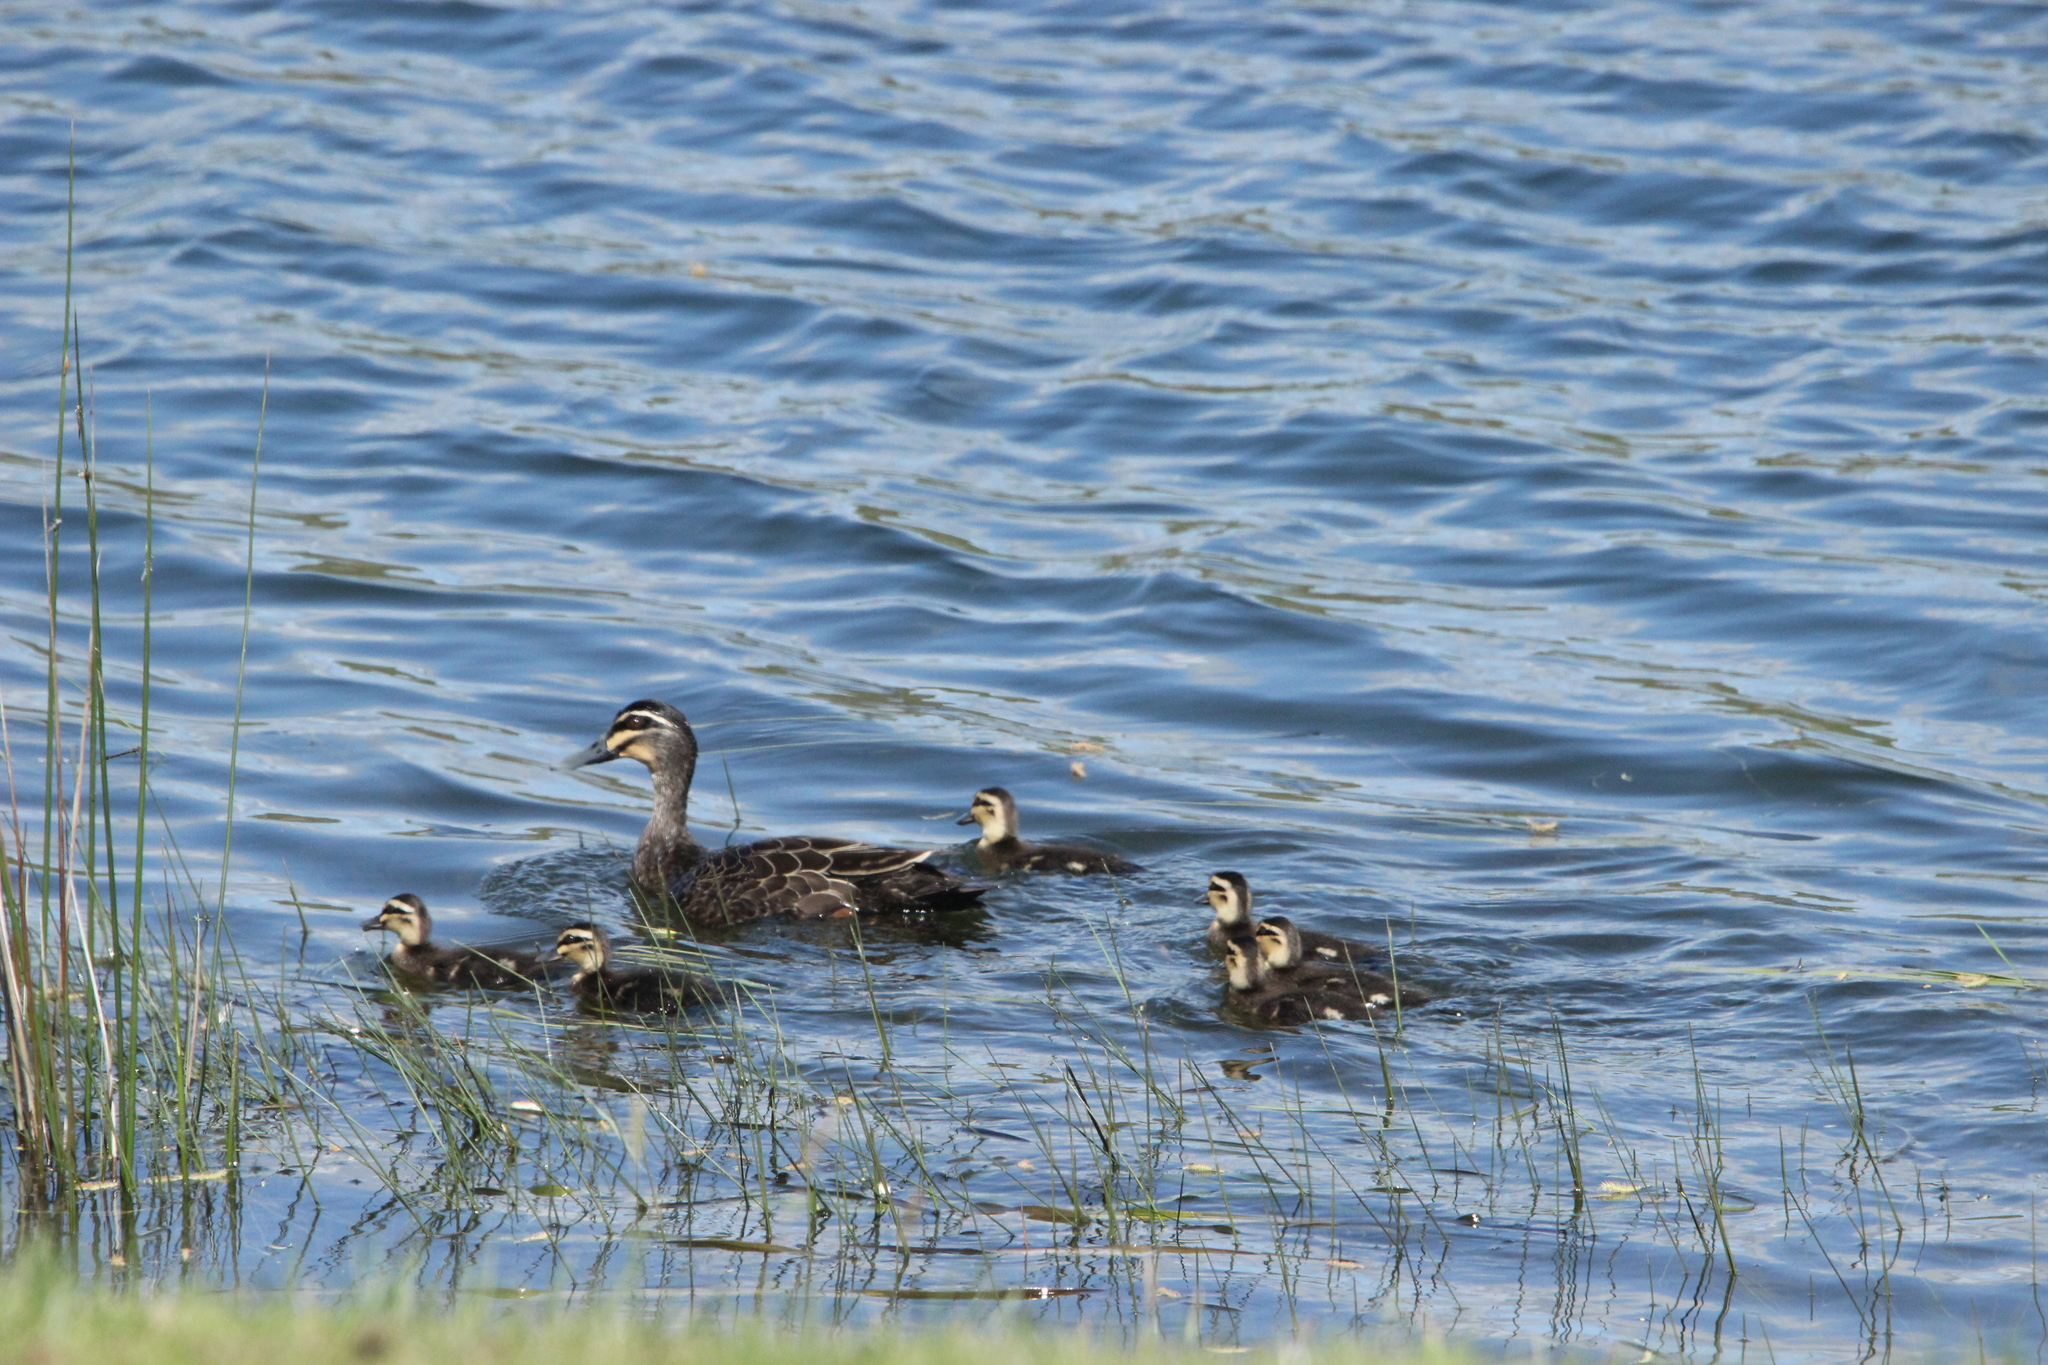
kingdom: Animalia
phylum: Chordata
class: Aves
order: Anseriformes
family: Anatidae
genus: Anas
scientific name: Anas superciliosa
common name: Pacific black duck
